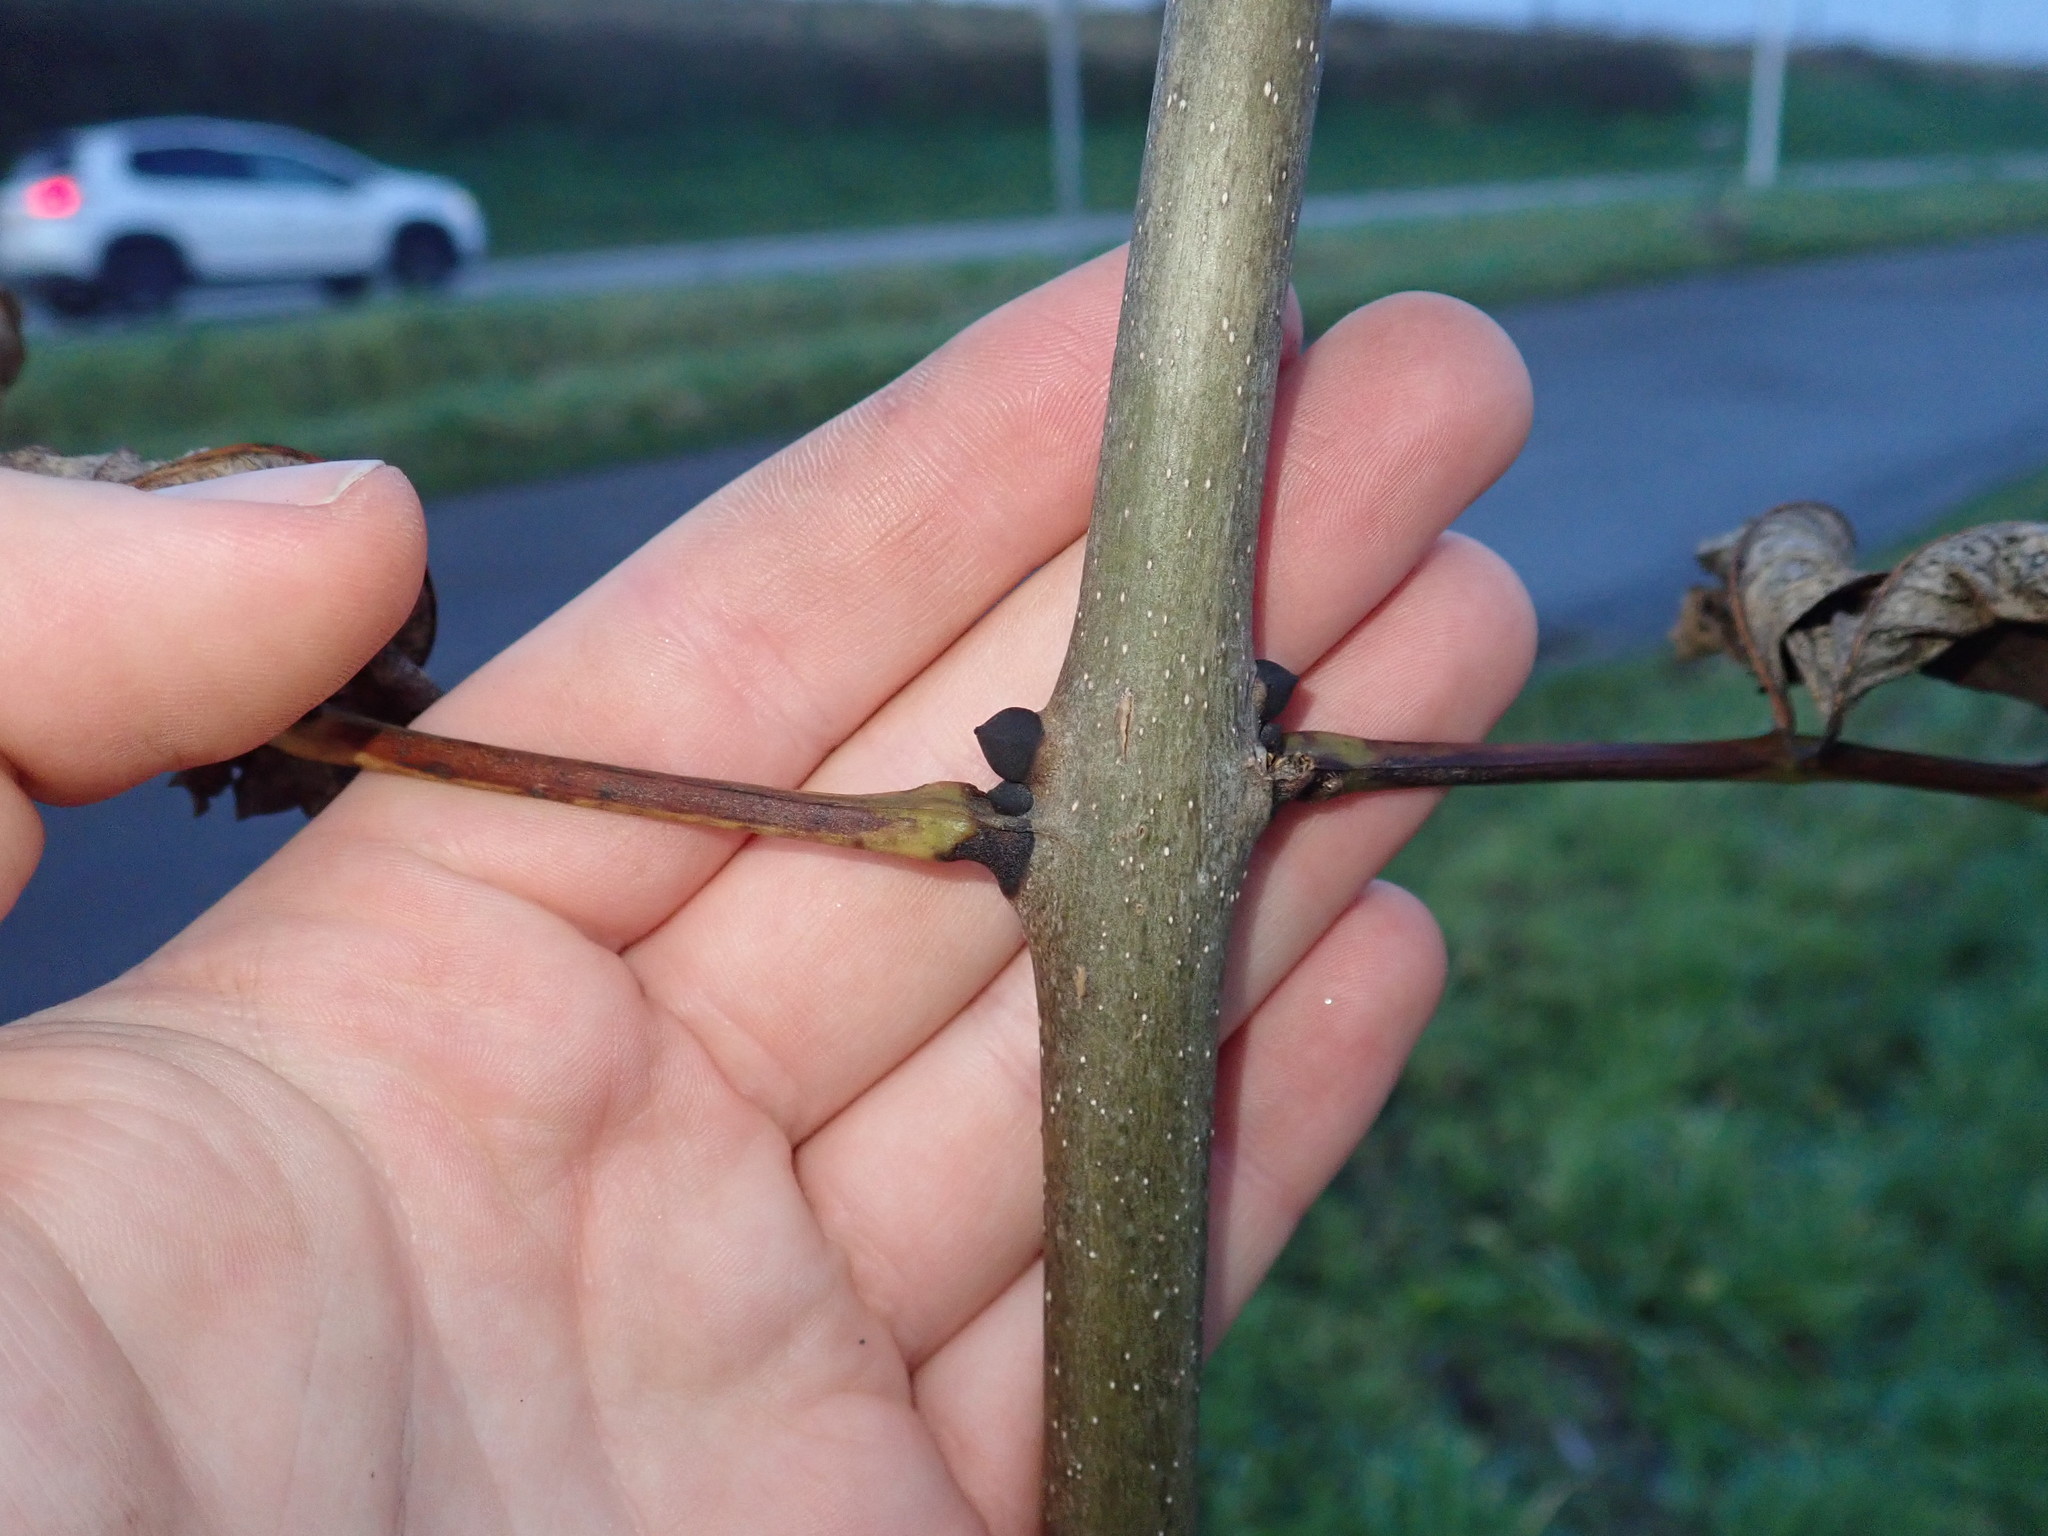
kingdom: Plantae
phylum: Tracheophyta
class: Magnoliopsida
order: Lamiales
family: Oleaceae
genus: Fraxinus
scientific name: Fraxinus excelsior
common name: European ash
